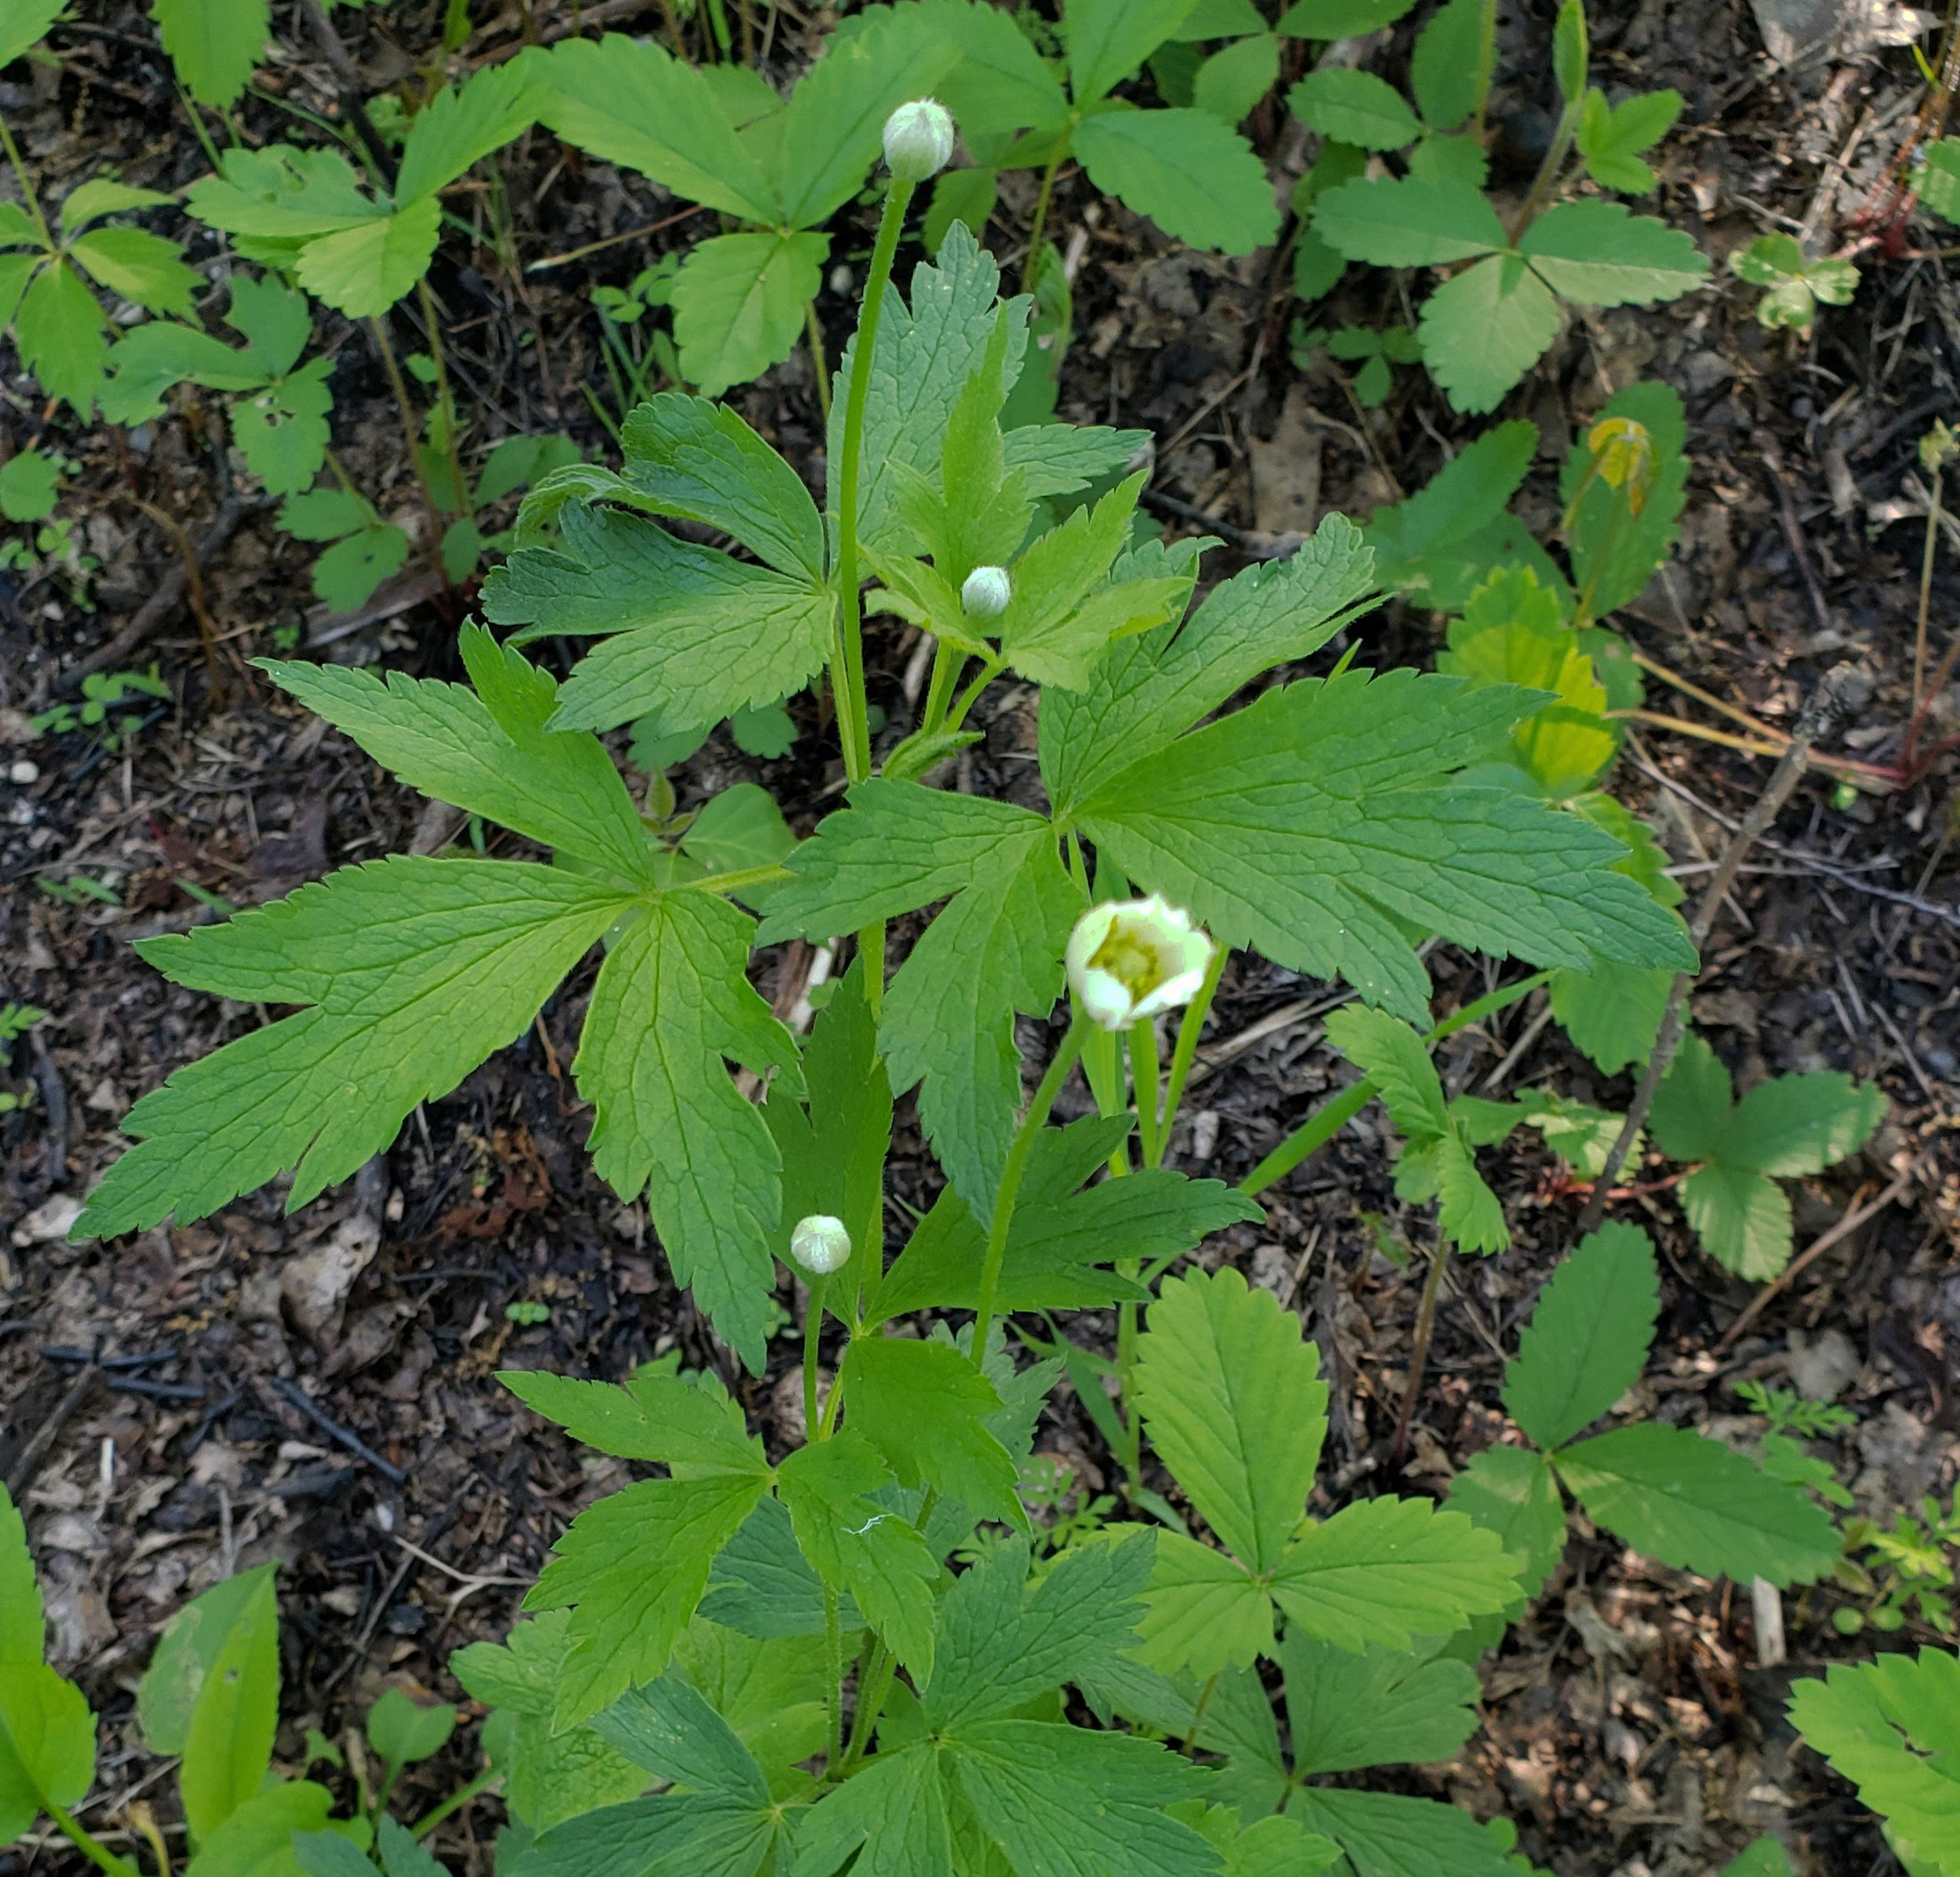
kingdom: Plantae
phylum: Tracheophyta
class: Magnoliopsida
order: Ranunculales
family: Ranunculaceae
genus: Anemone
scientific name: Anemone virginiana
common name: Tall anemone
